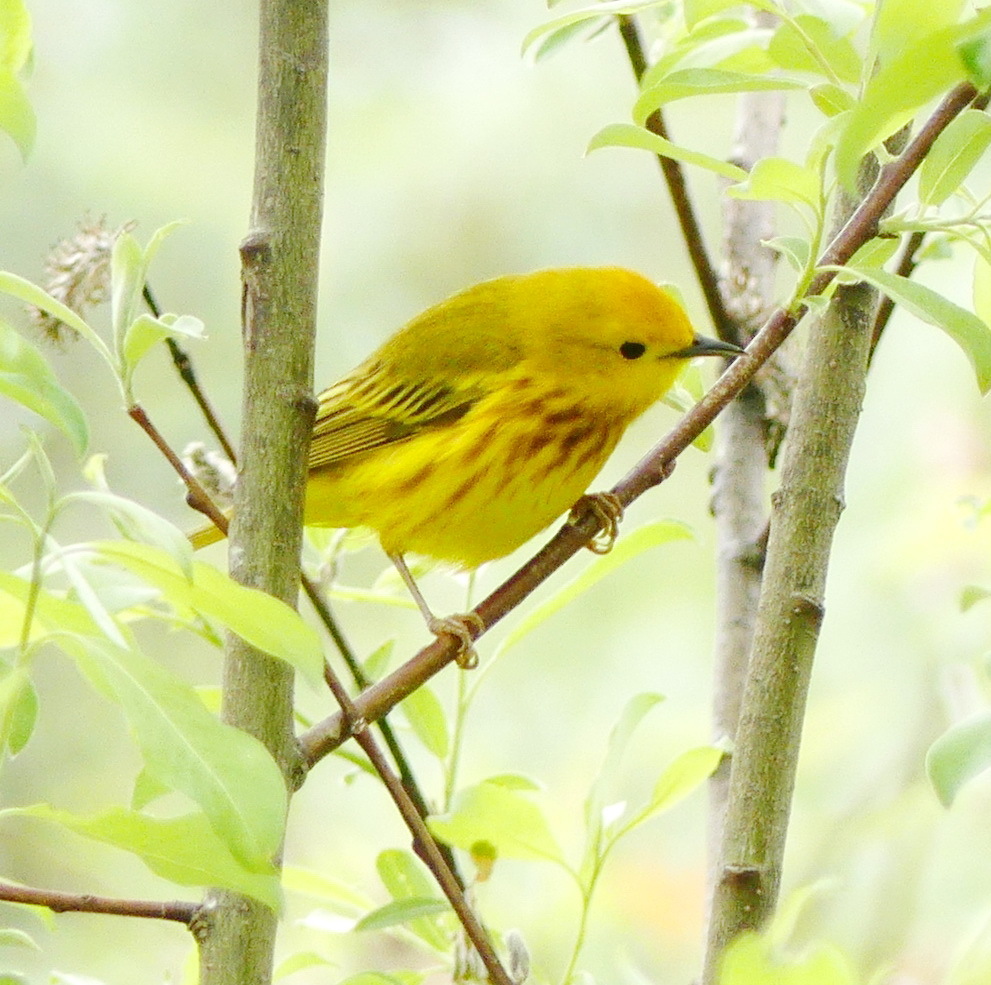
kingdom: Animalia
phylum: Chordata
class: Aves
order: Passeriformes
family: Parulidae
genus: Setophaga
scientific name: Setophaga petechia
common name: Yellow warbler
